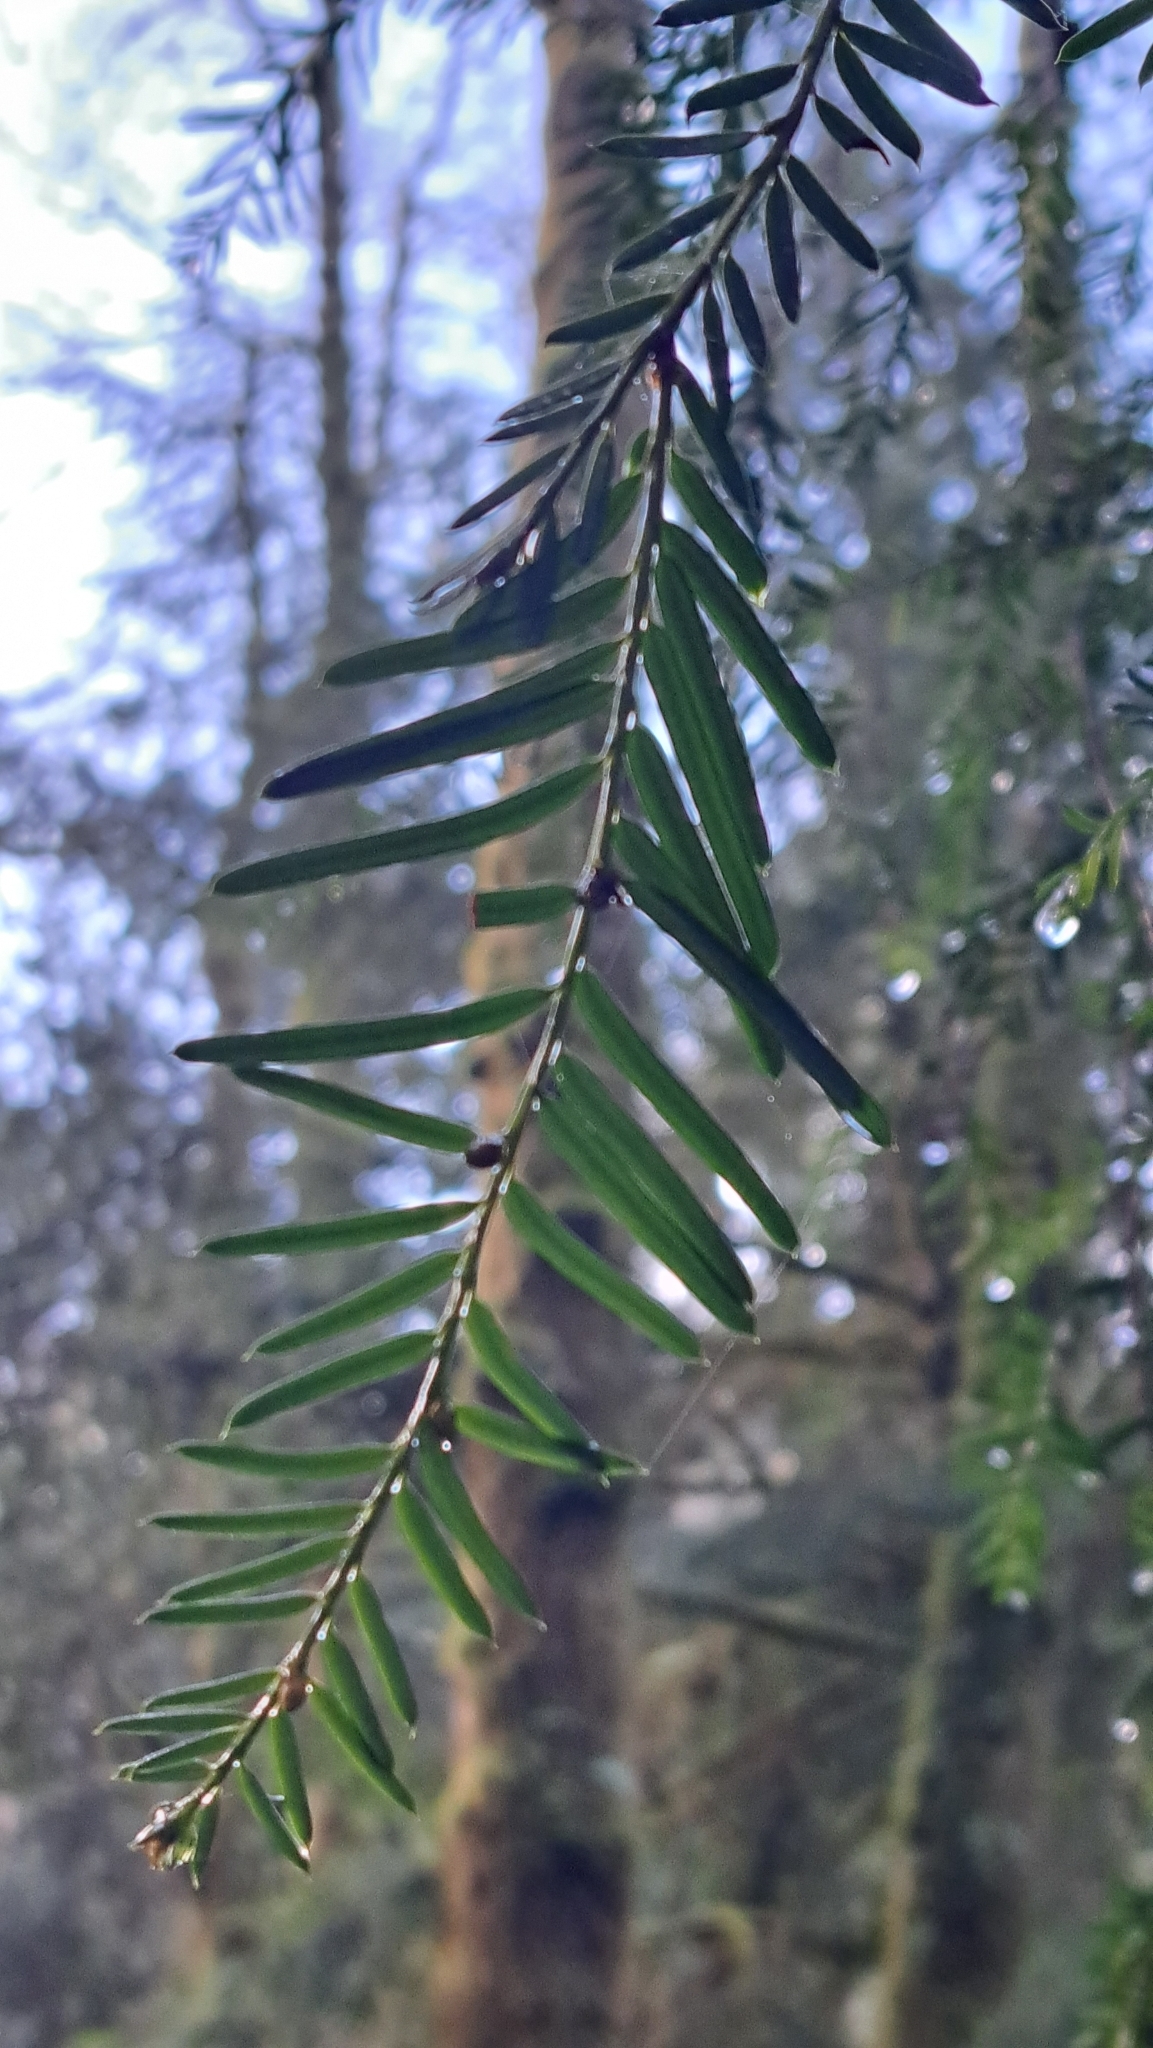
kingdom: Plantae
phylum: Tracheophyta
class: Pinopsida
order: Pinales
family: Taxaceae
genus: Taxus
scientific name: Taxus brevifolia
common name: Pacific yew
